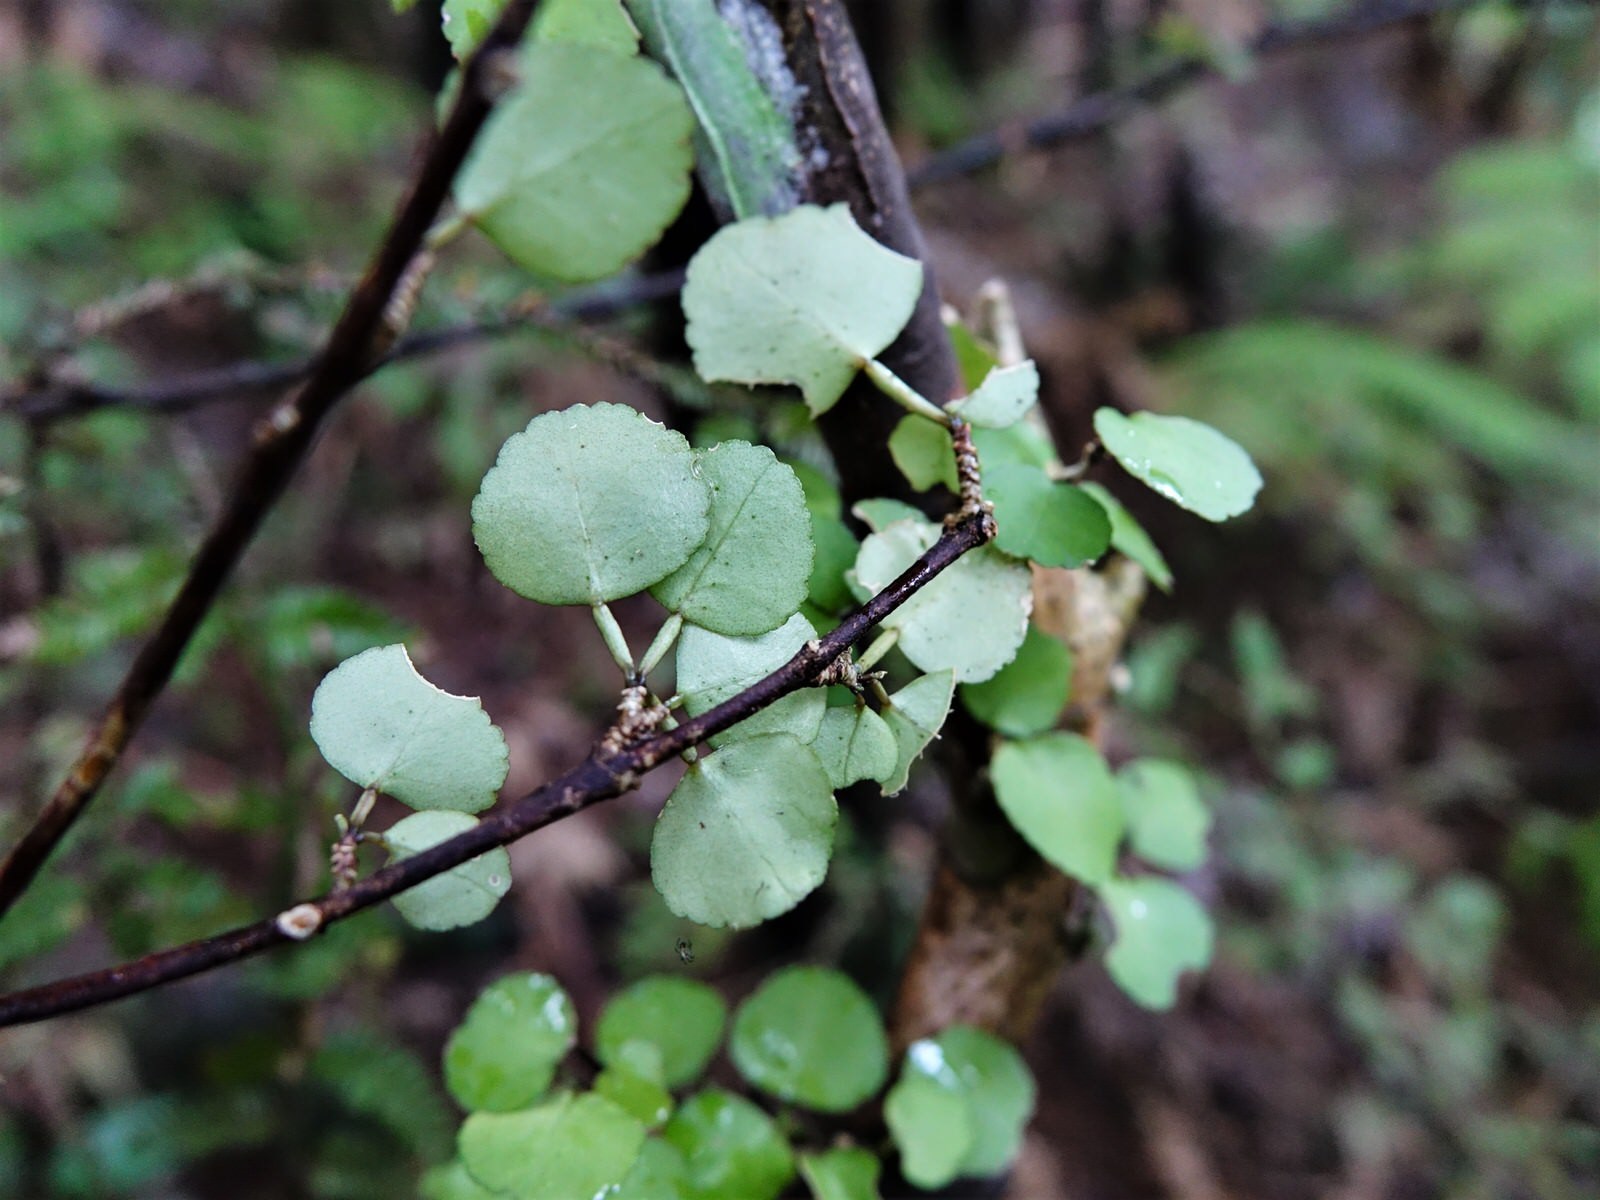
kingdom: Plantae
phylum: Tracheophyta
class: Magnoliopsida
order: Sapindales
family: Rutaceae
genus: Melicope
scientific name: Melicope simplex
